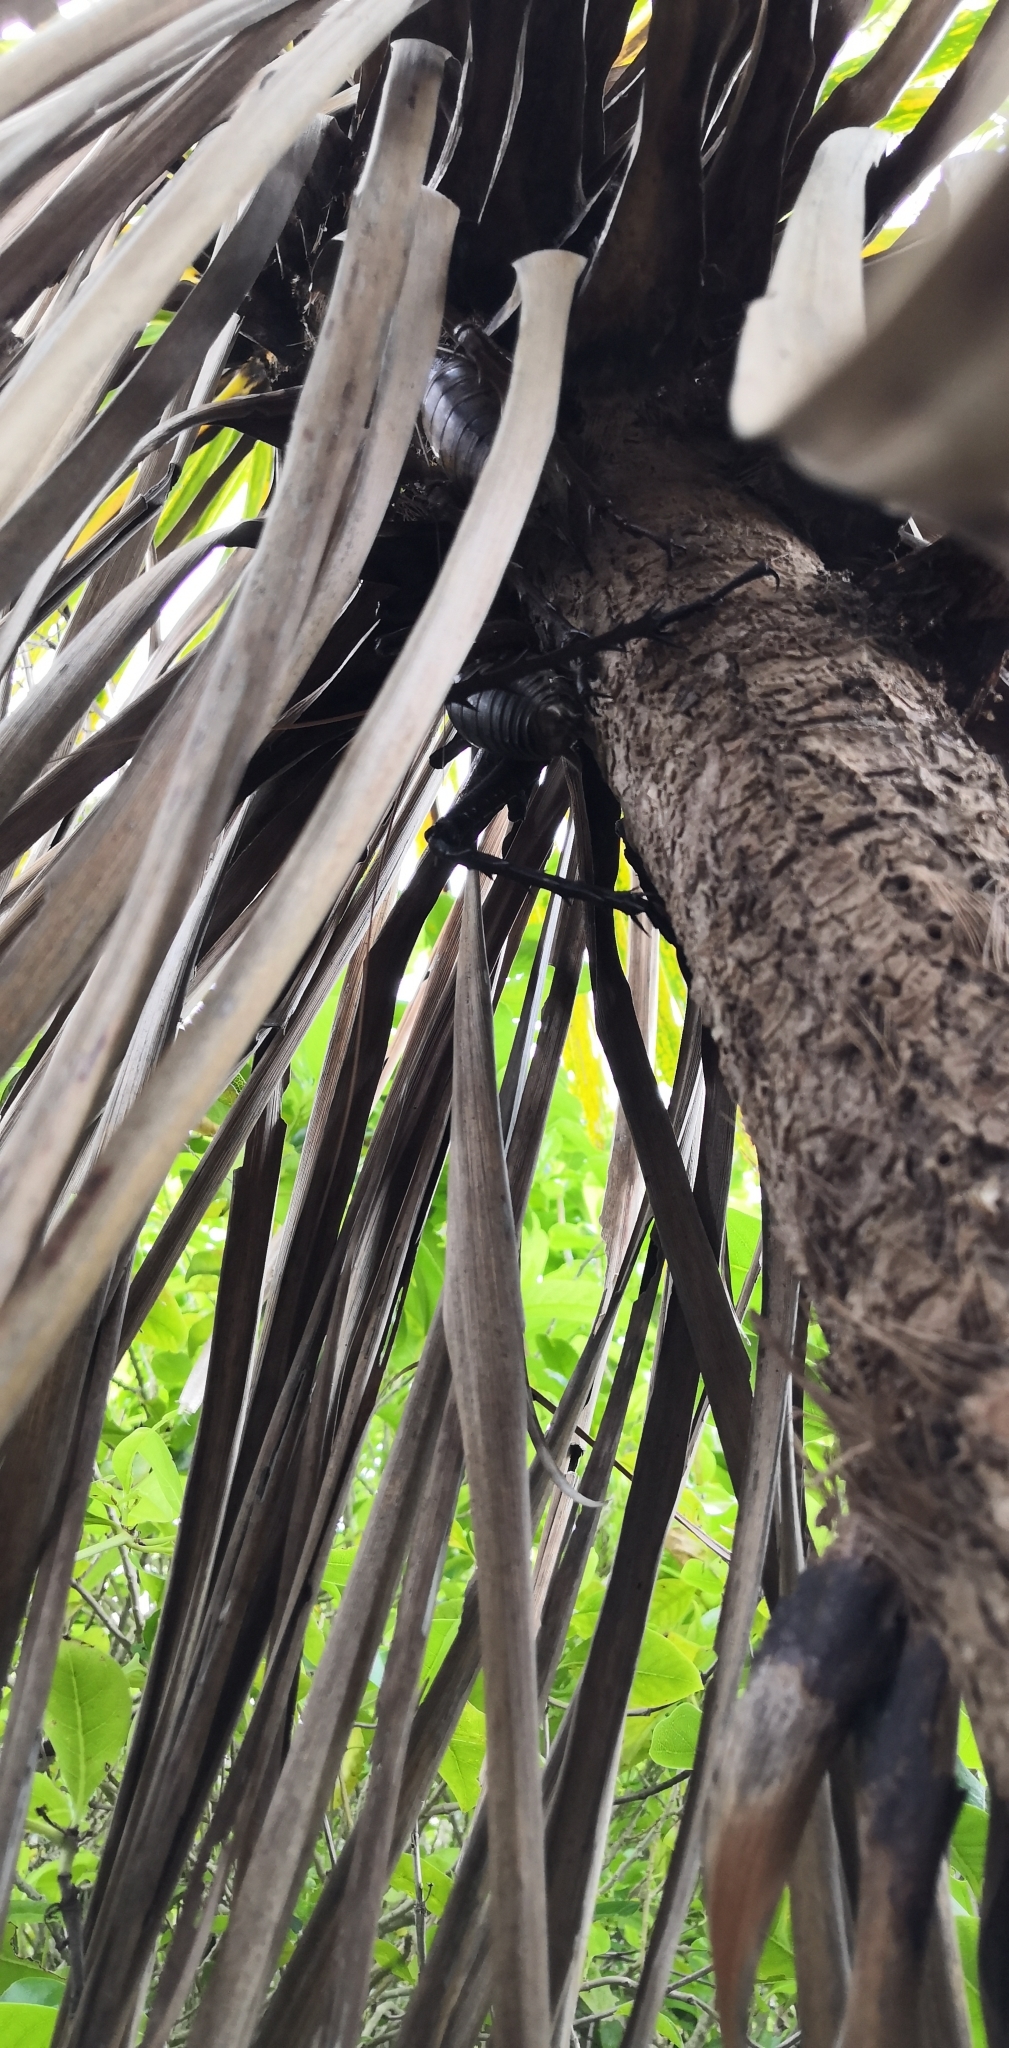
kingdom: Animalia
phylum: Arthropoda
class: Insecta
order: Orthoptera
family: Anostostomatidae
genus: Deinacrida
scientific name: Deinacrida heteracantha
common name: Wetapunga
